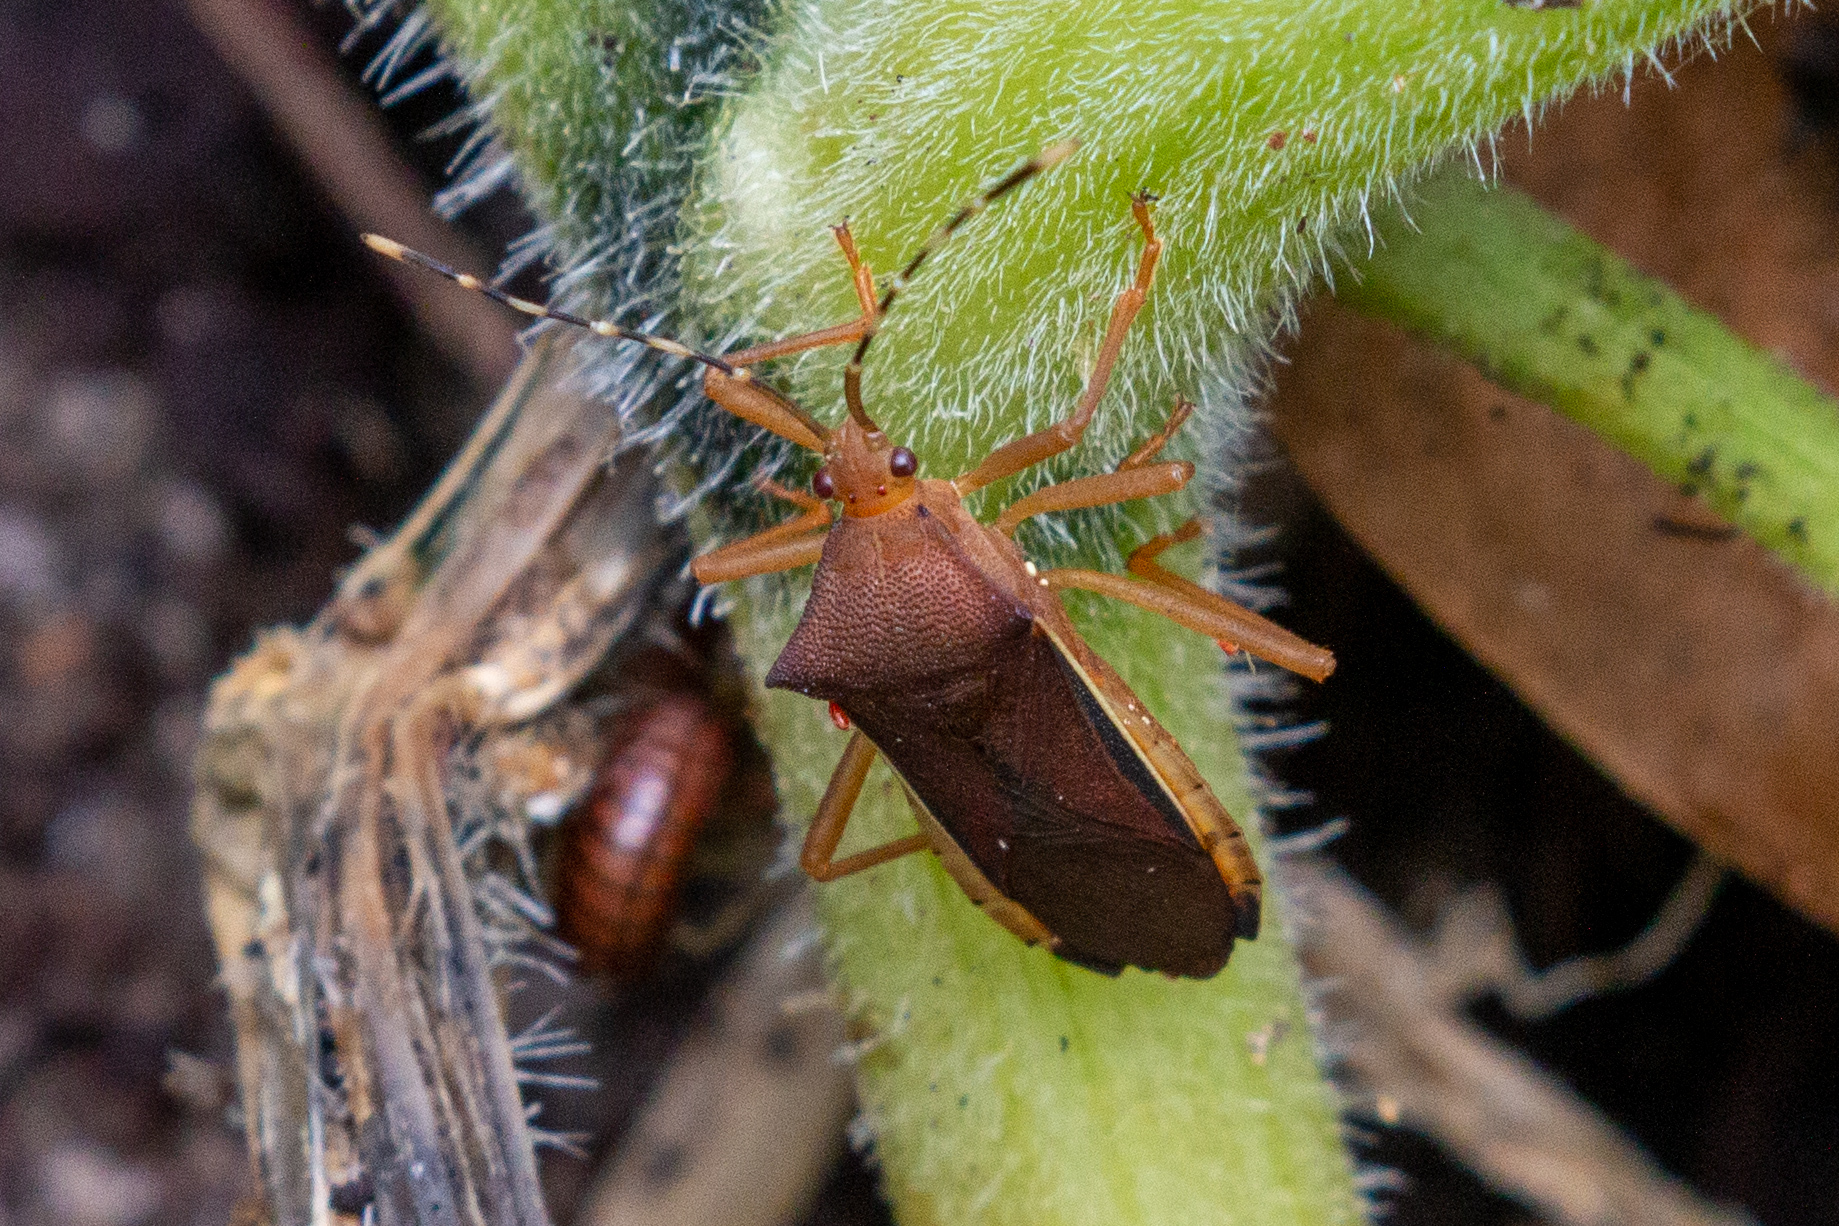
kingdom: Animalia
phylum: Arthropoda
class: Insecta
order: Hemiptera
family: Coreidae
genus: Anasa
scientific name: Anasa varicornis
